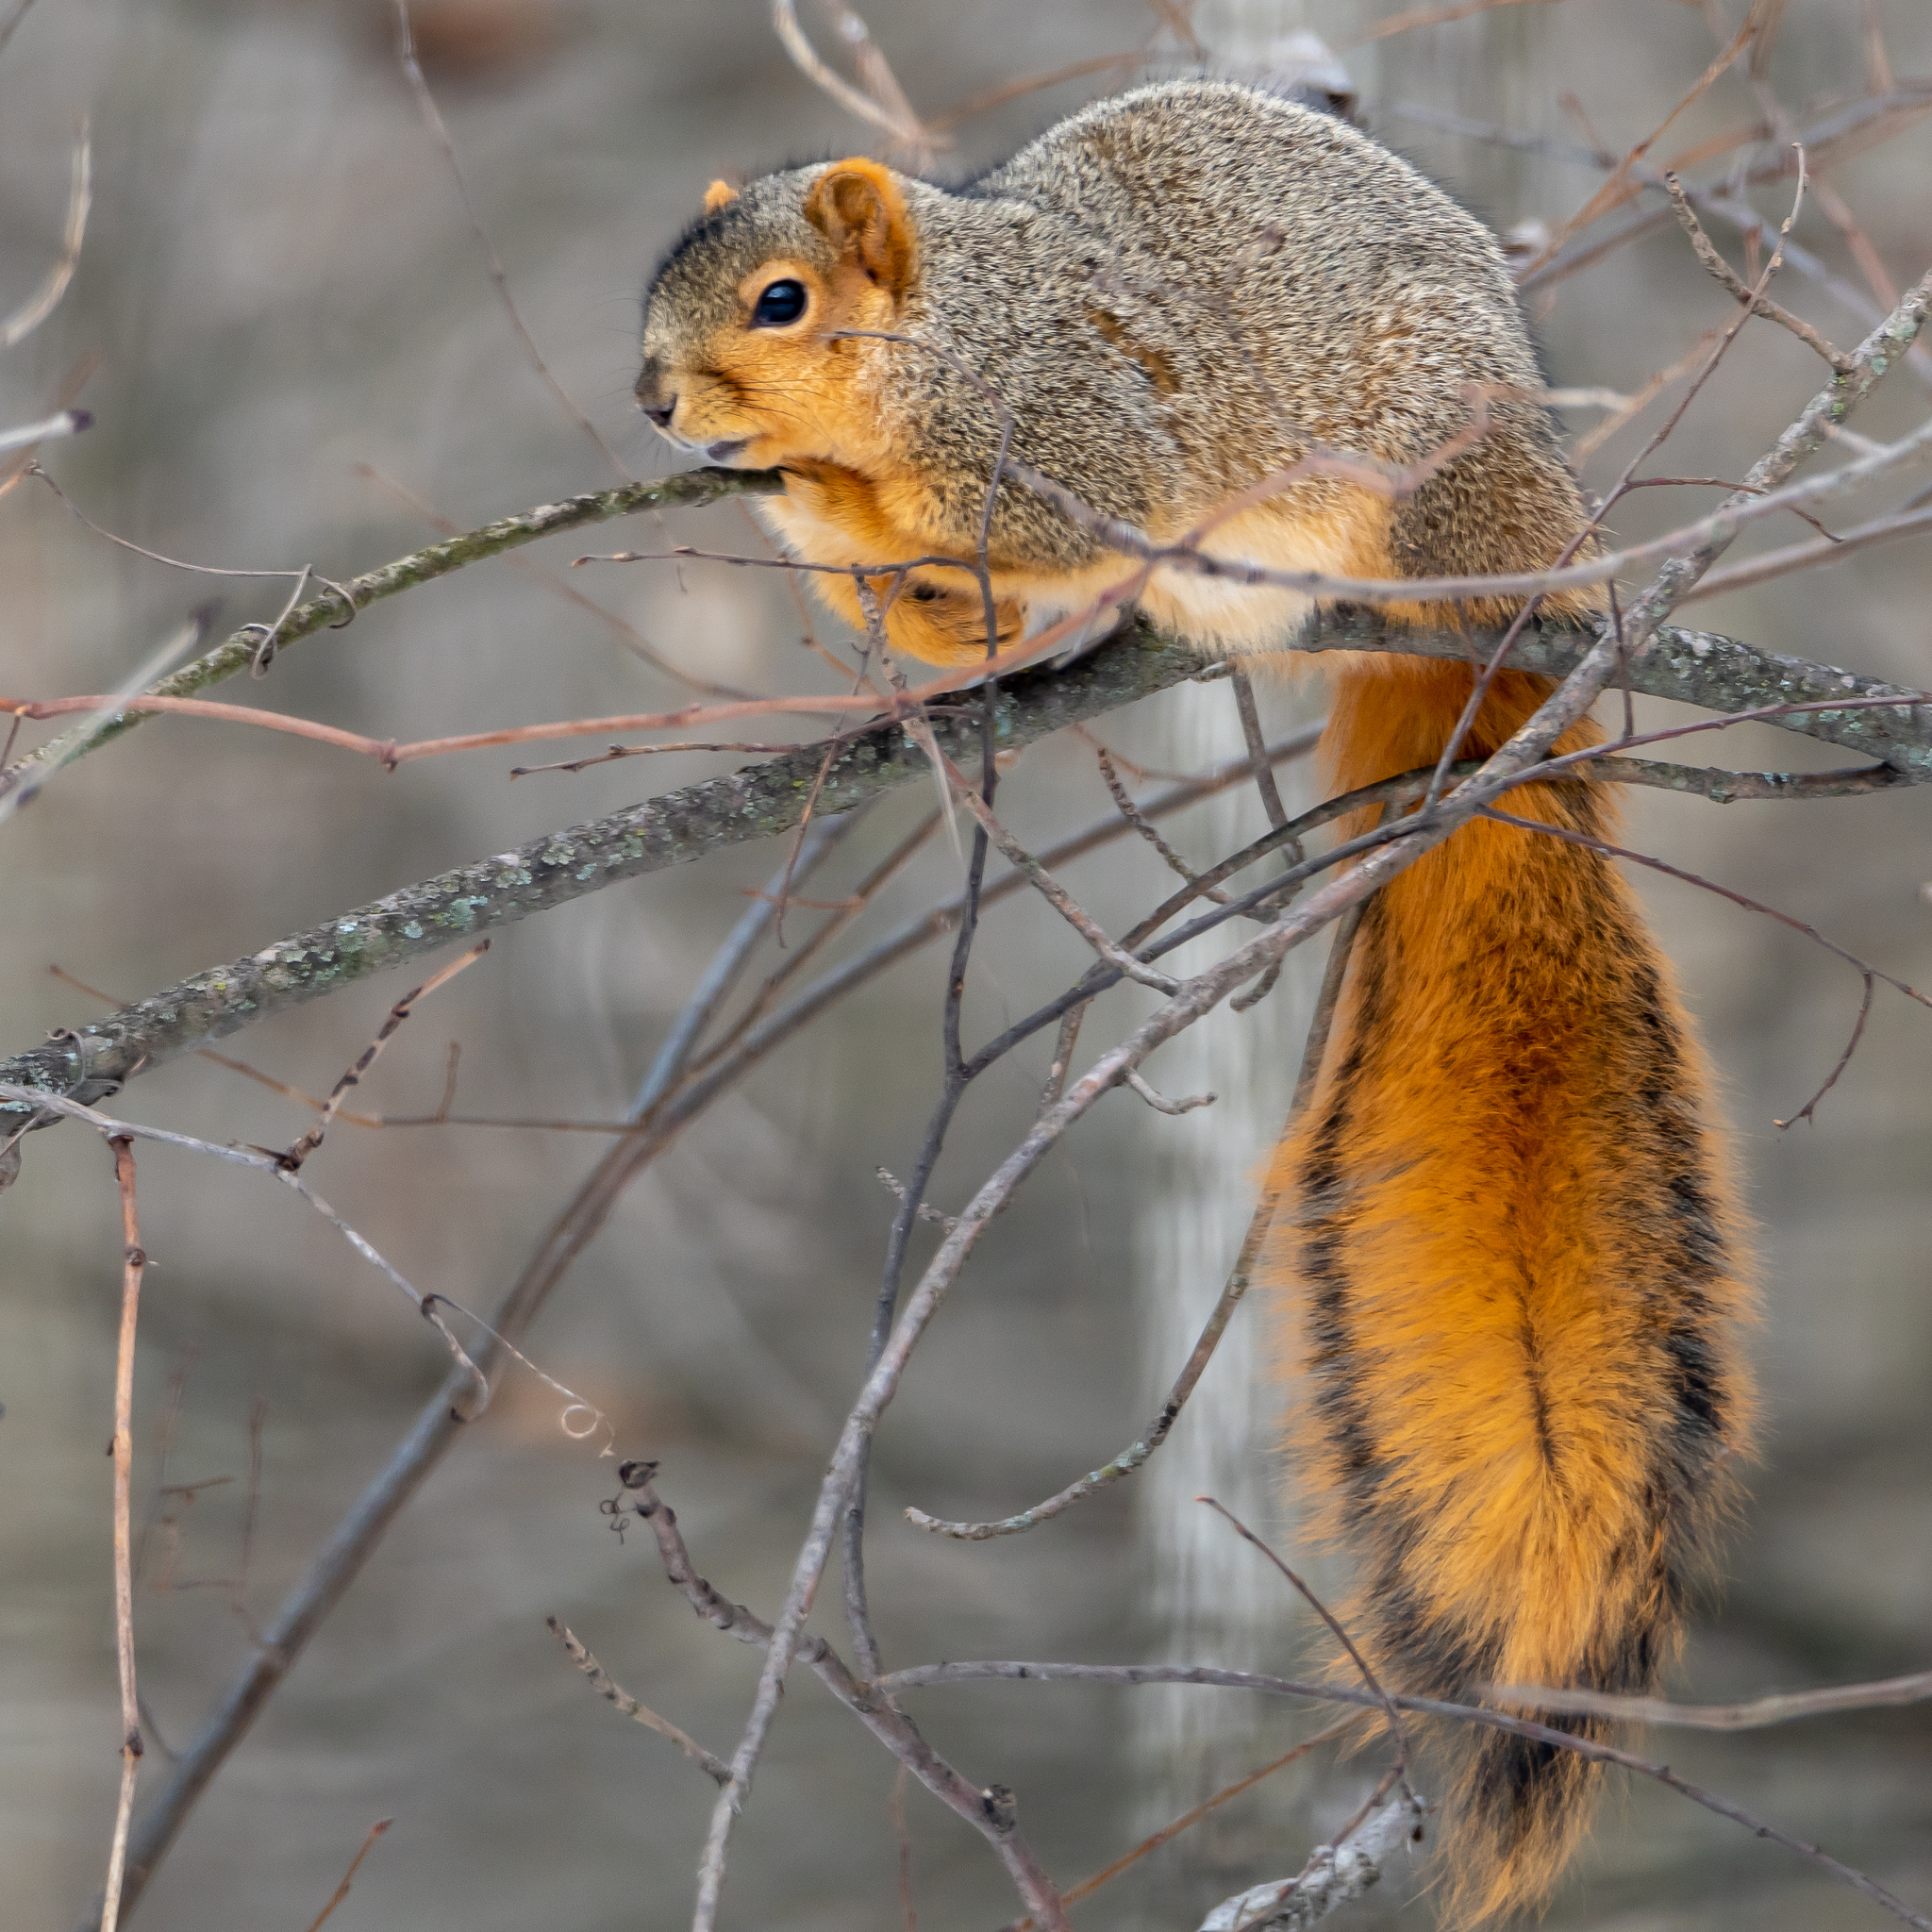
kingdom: Animalia
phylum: Chordata
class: Mammalia
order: Rodentia
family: Sciuridae
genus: Sciurus
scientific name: Sciurus niger
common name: Fox squirrel
